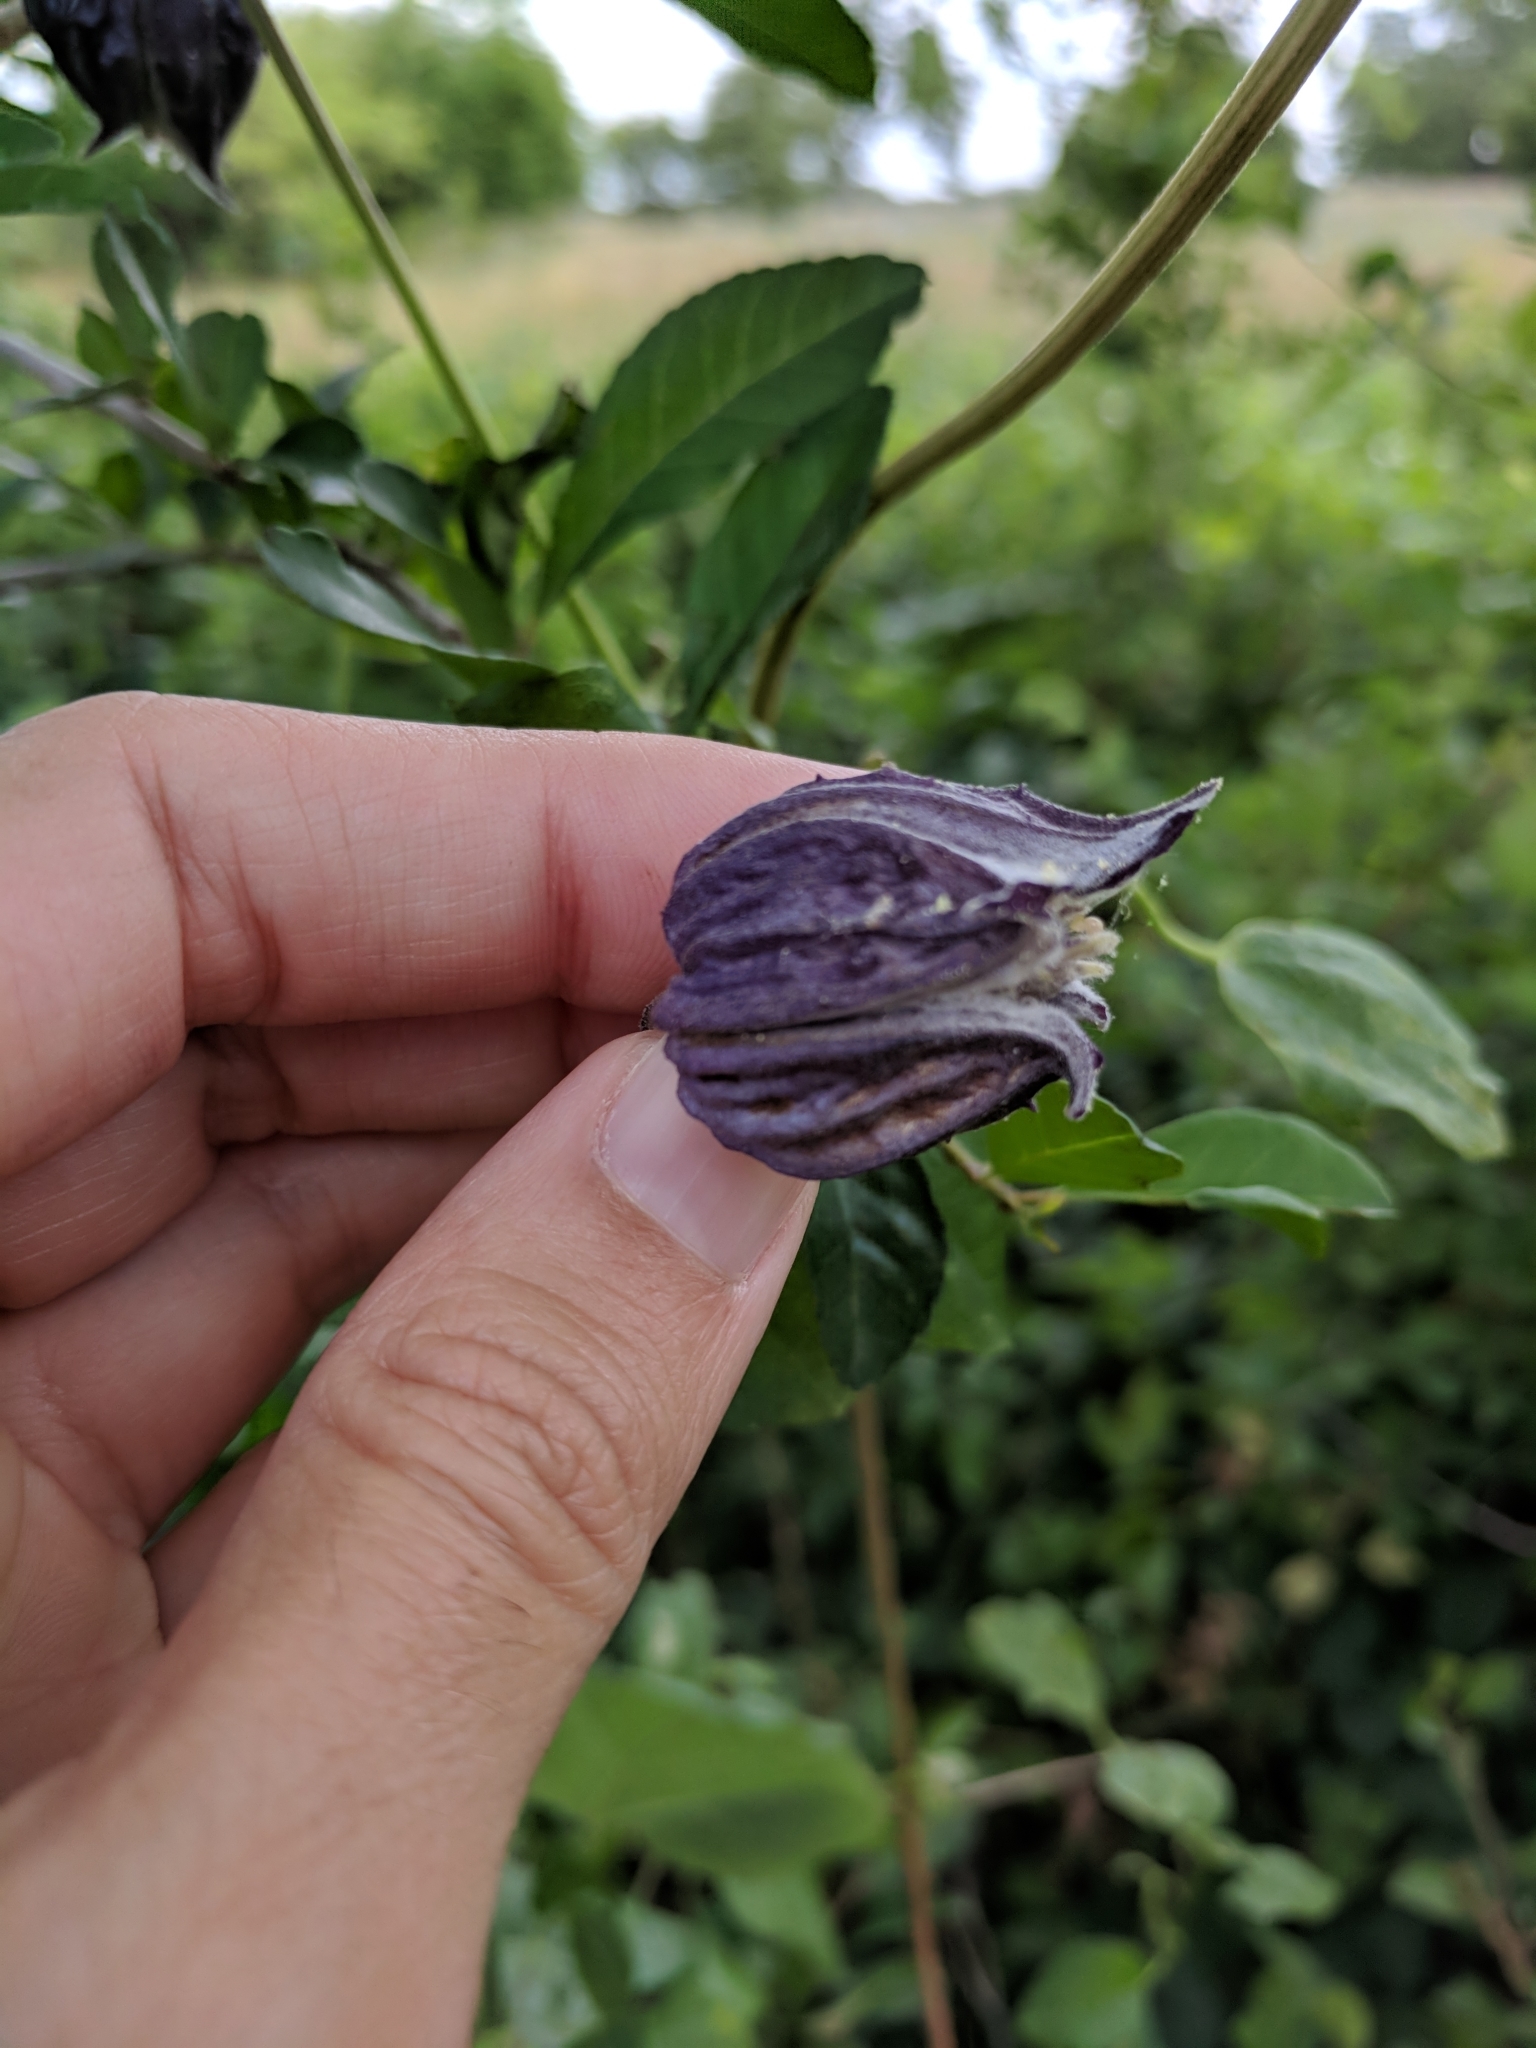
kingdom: Plantae
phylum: Tracheophyta
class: Magnoliopsida
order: Ranunculales
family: Ranunculaceae
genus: Clematis
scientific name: Clematis pitcheri
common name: Bellflower clematis
